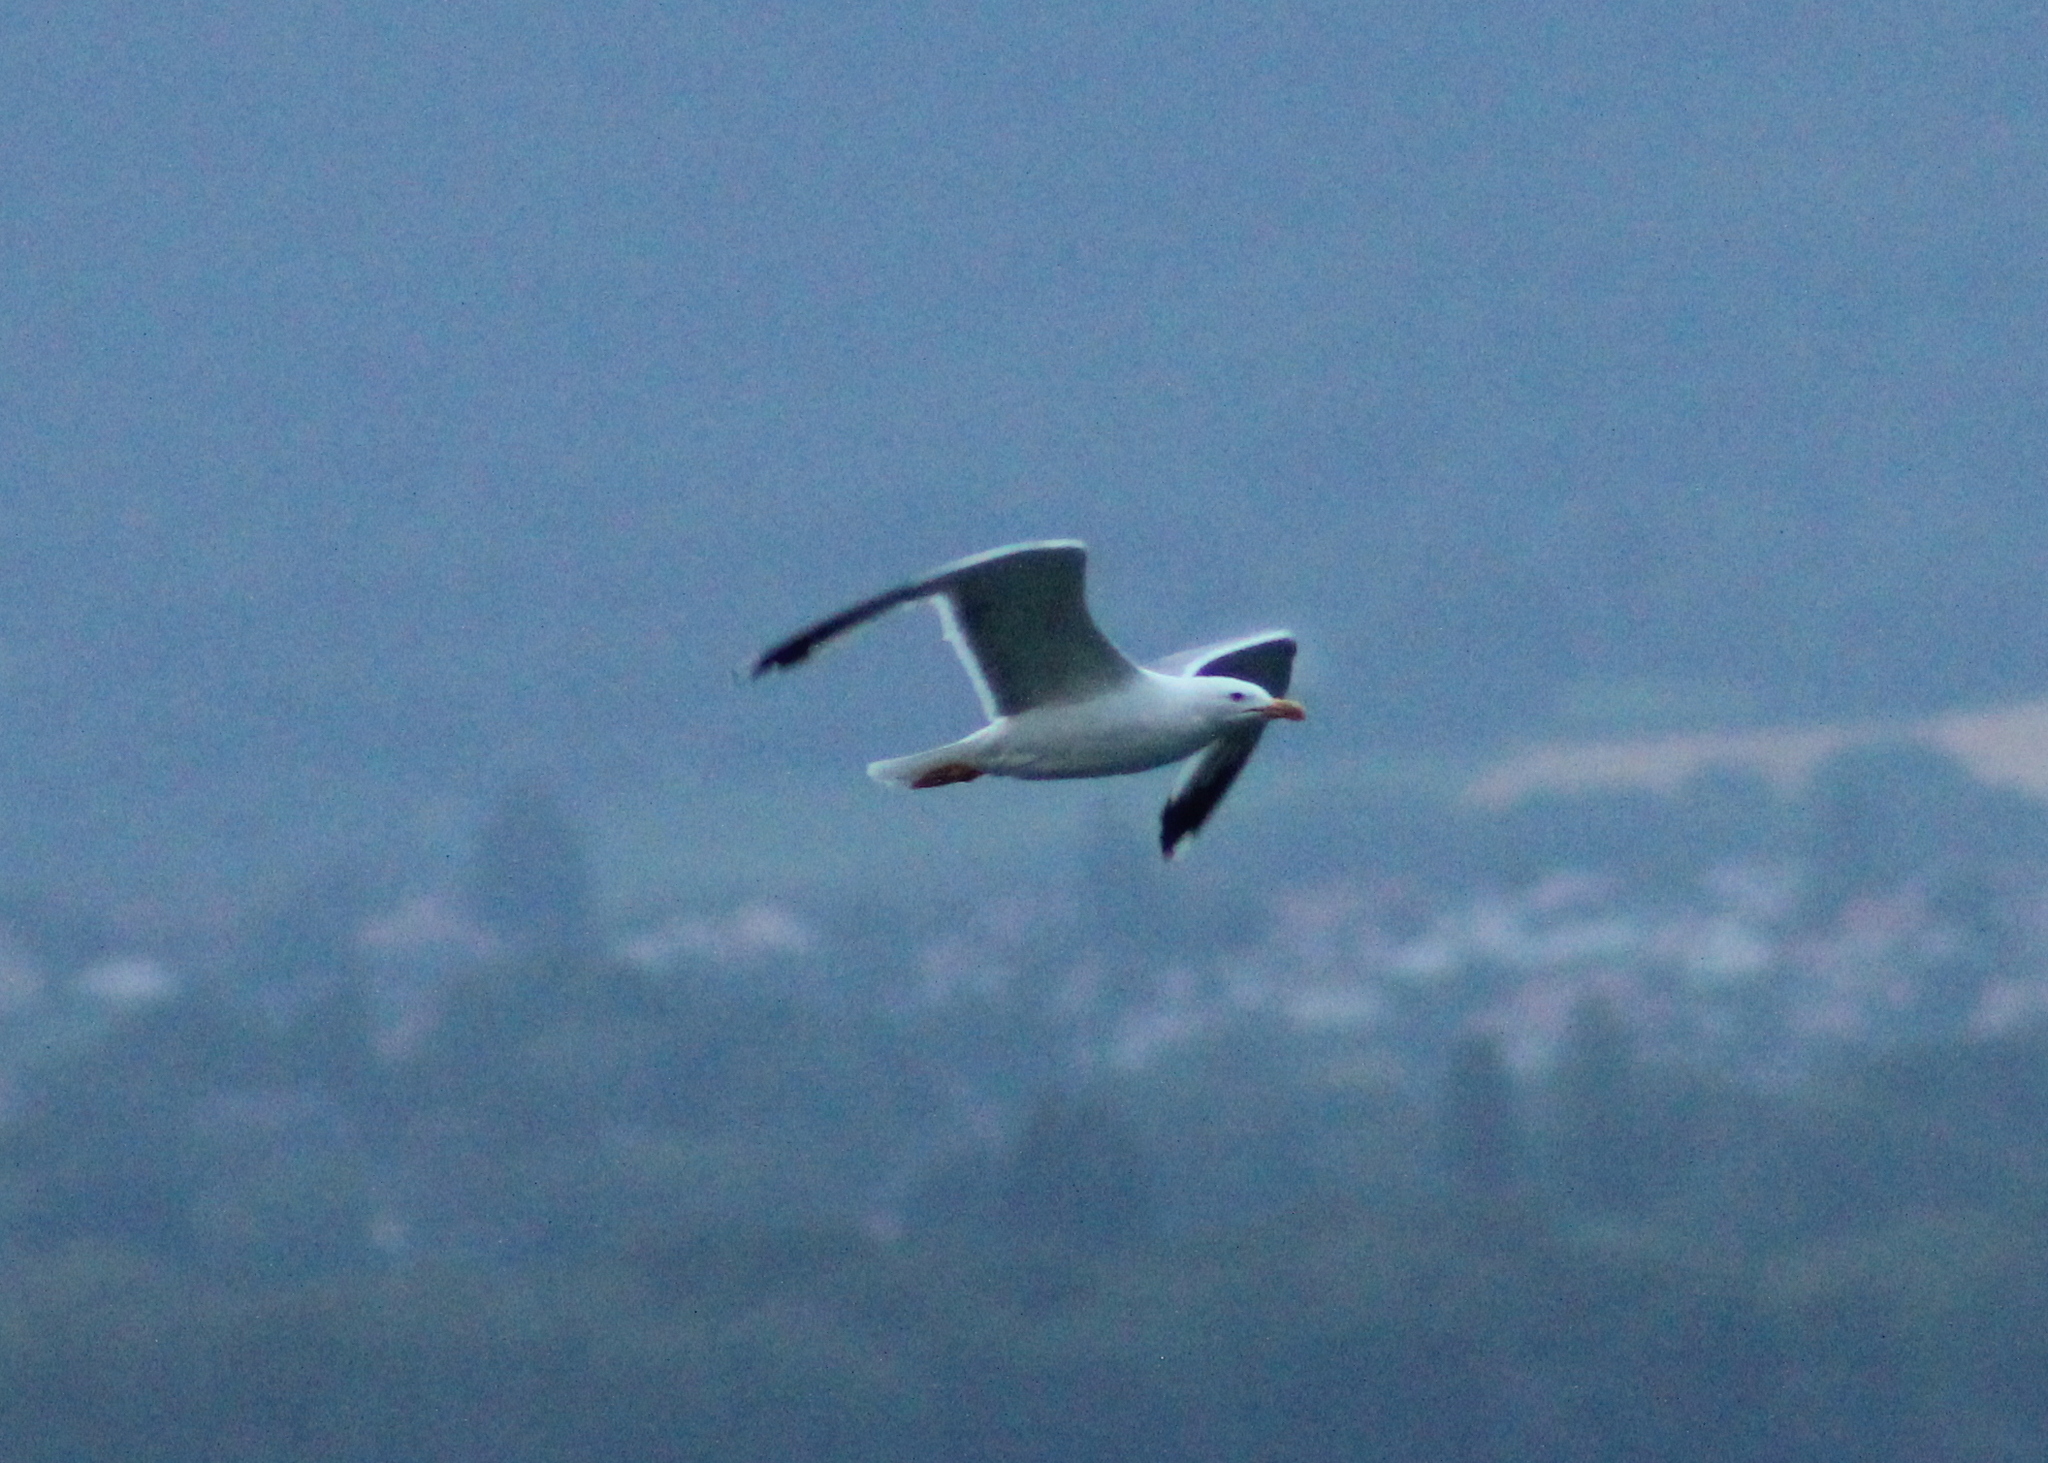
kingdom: Animalia
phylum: Chordata
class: Aves
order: Charadriiformes
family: Laridae
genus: Larus
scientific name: Larus michahellis
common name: Yellow-legged gull
